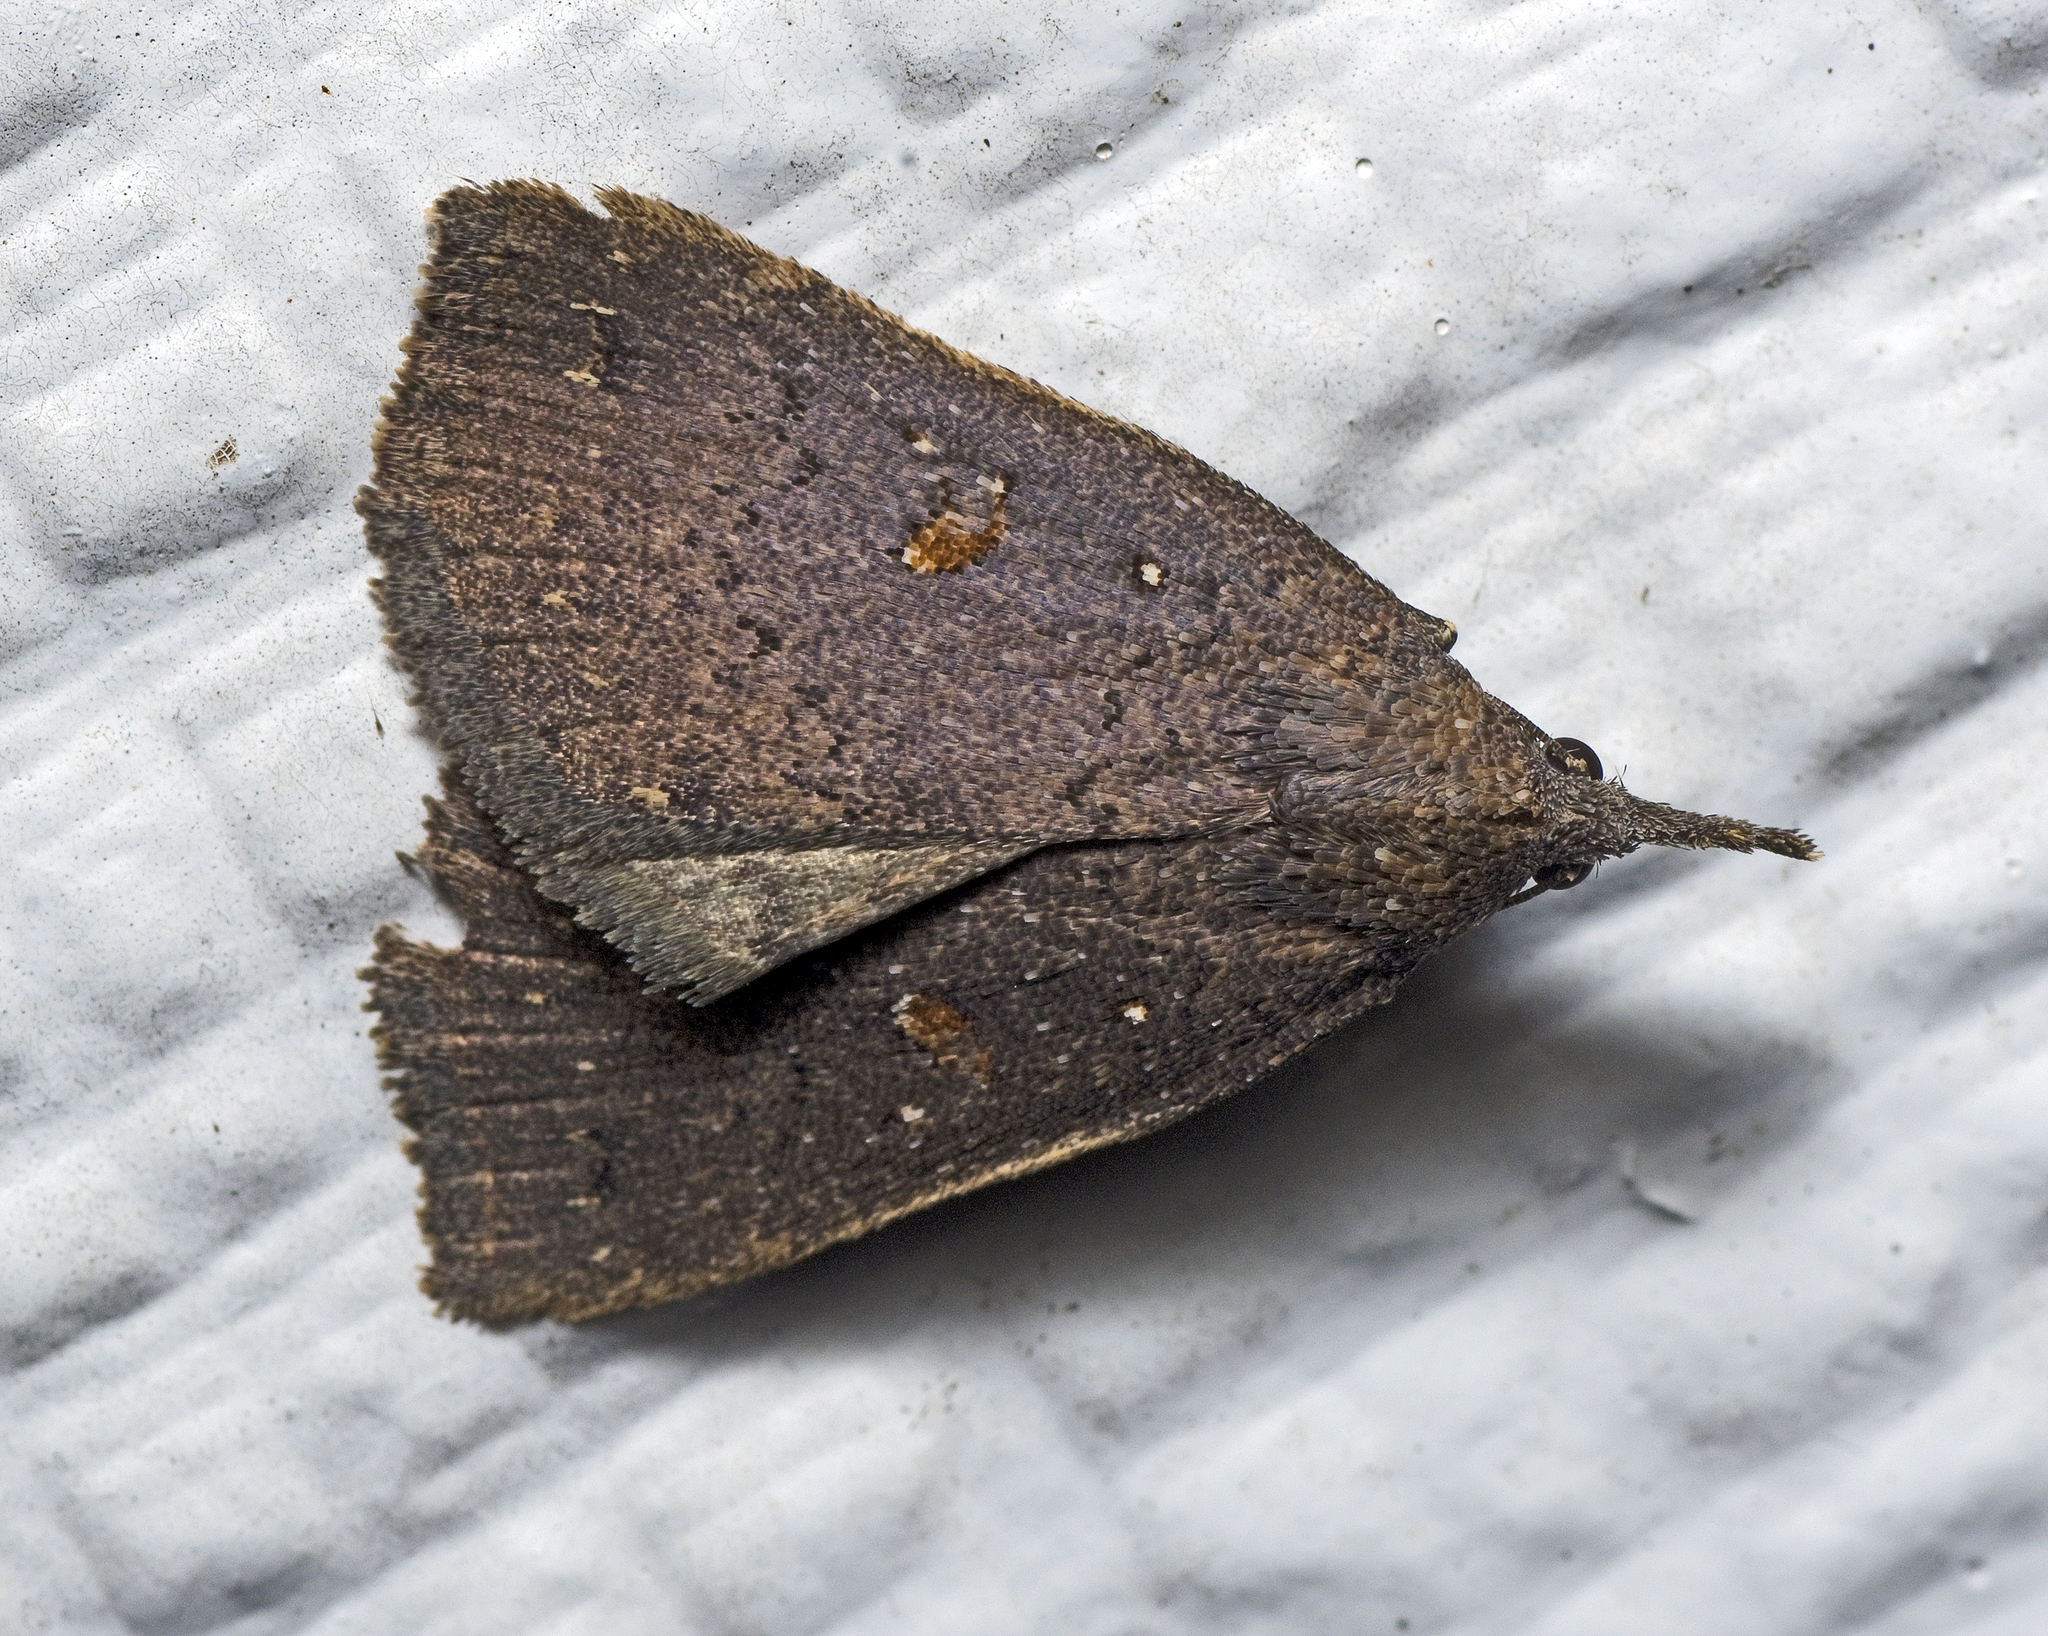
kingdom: Animalia
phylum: Arthropoda
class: Insecta
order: Lepidoptera
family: Erebidae
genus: Rhapsa
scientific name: Rhapsa eretmophora
